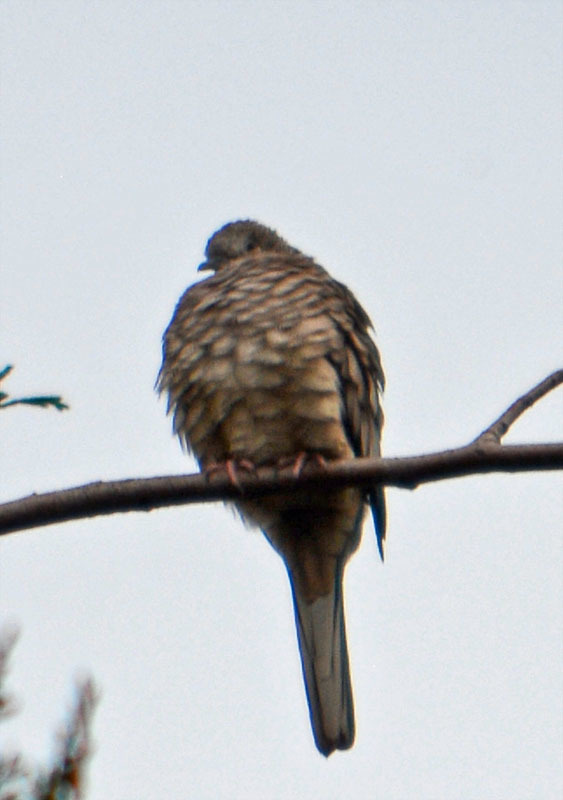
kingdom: Animalia
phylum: Chordata
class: Aves
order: Columbiformes
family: Columbidae
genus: Columbina
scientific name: Columbina inca
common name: Inca dove
